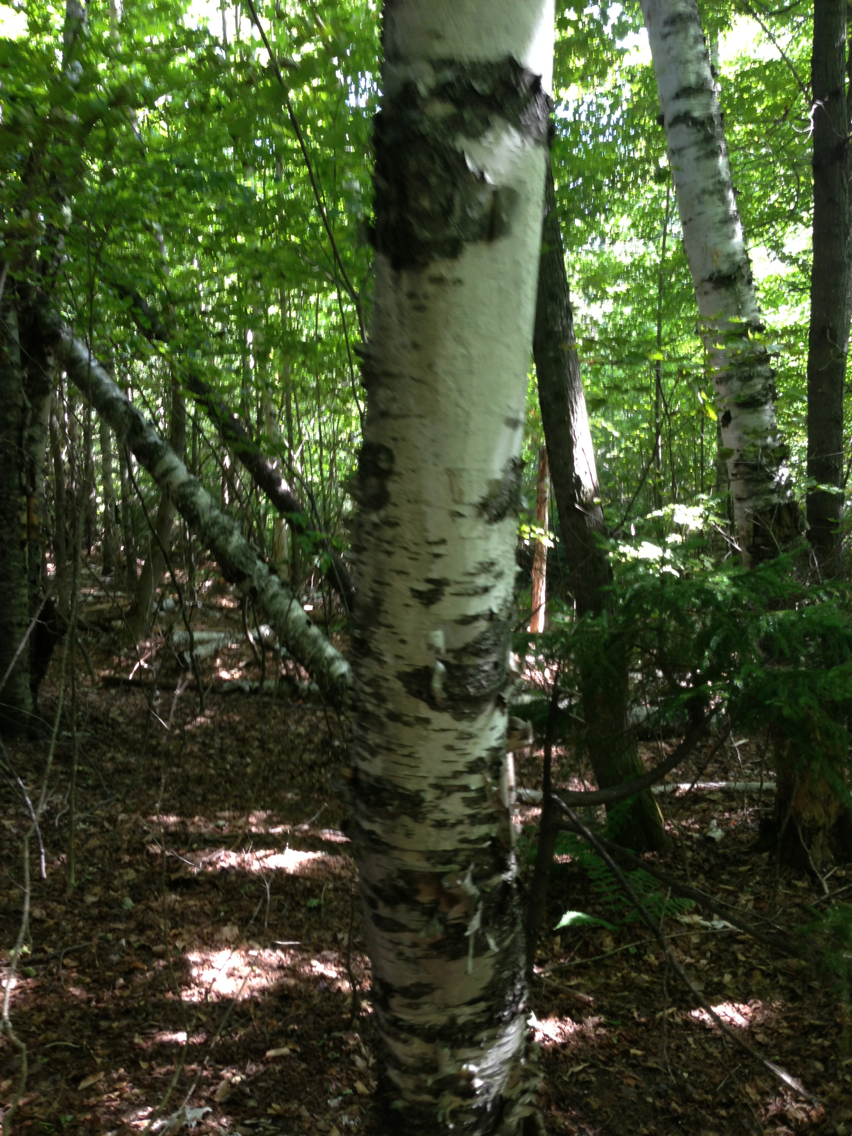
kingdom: Plantae
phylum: Tracheophyta
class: Magnoliopsida
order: Fagales
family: Betulaceae
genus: Betula
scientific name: Betula papyrifera
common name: Paper birch
